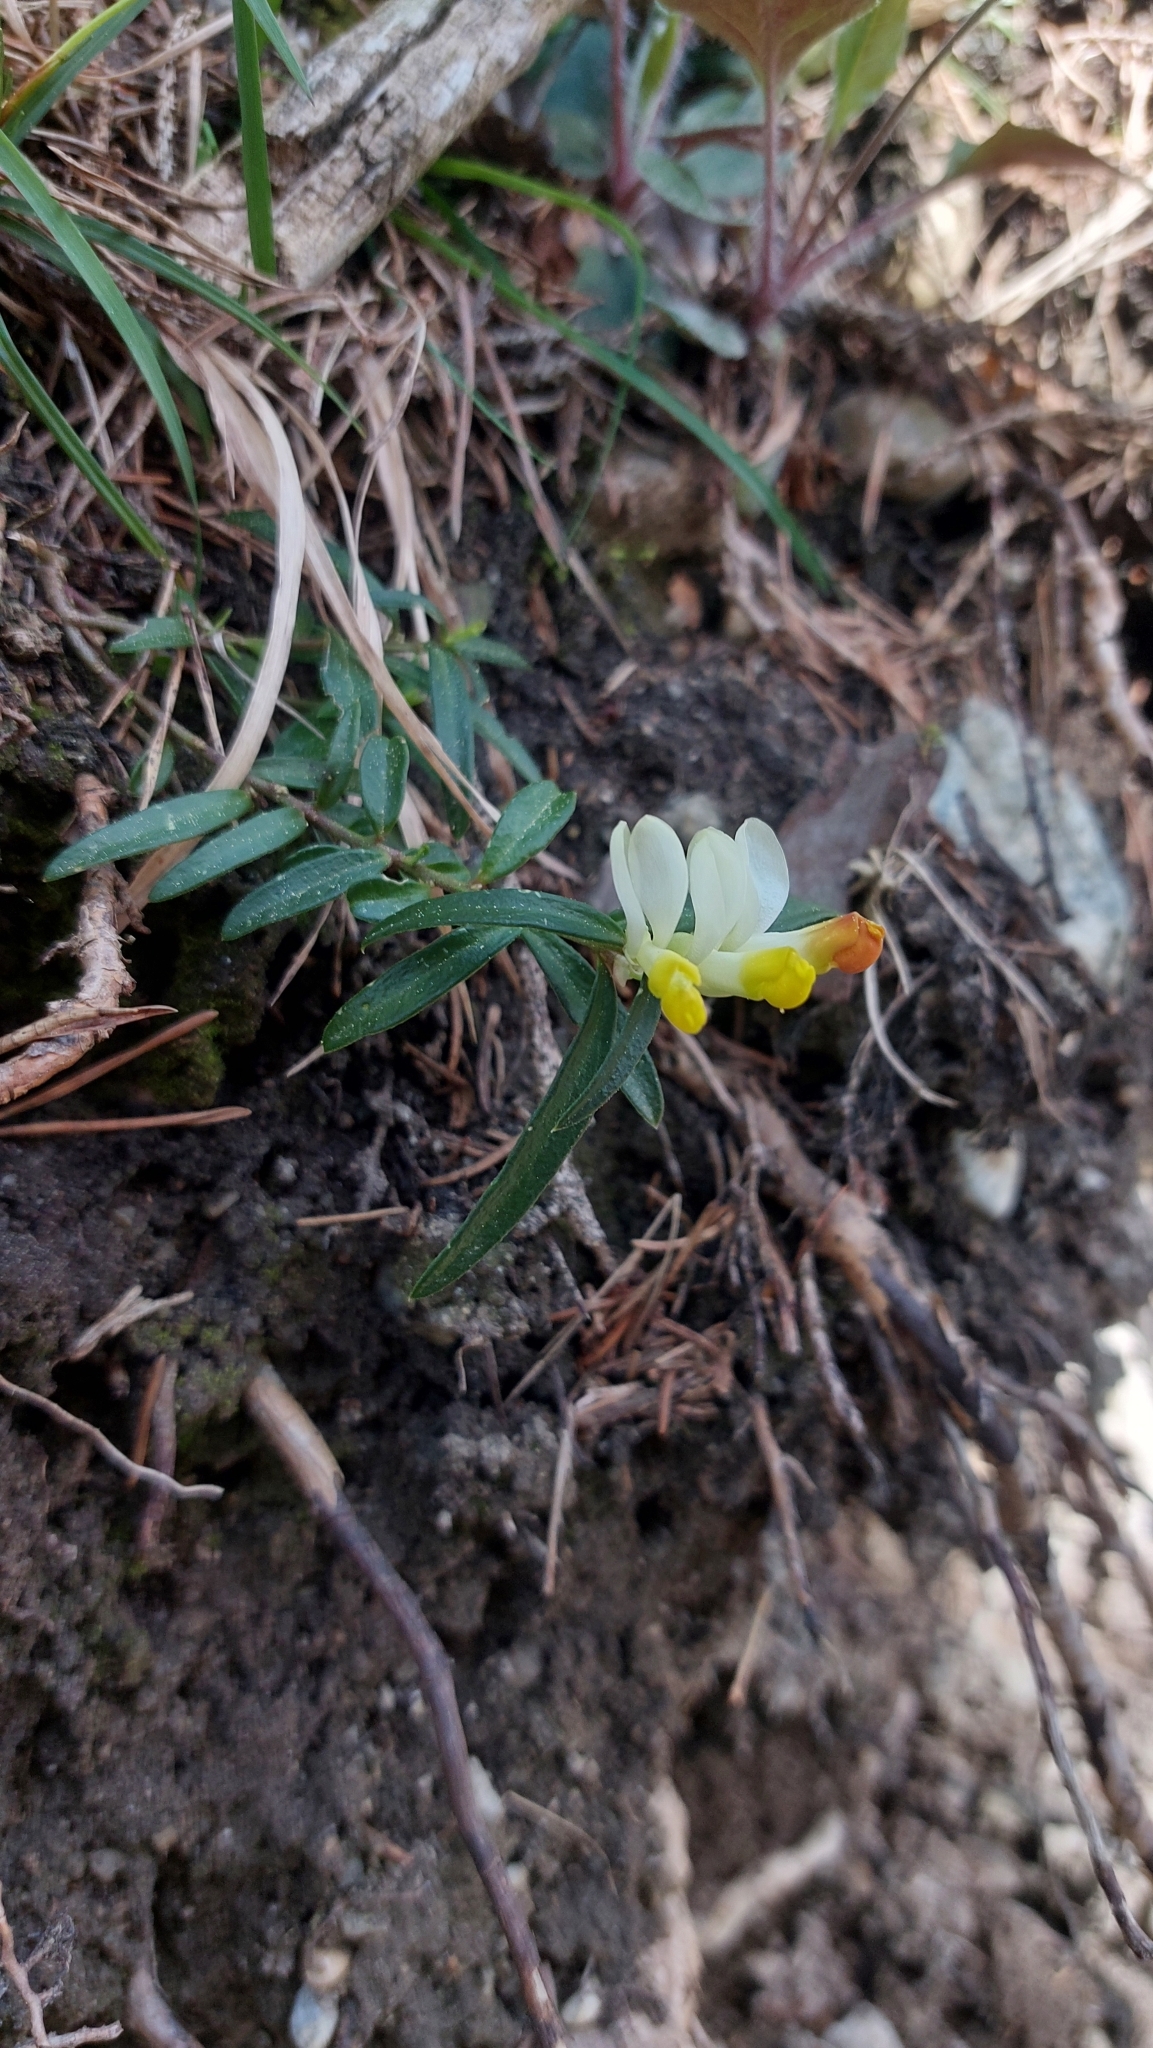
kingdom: Plantae
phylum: Tracheophyta
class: Magnoliopsida
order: Fabales
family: Polygalaceae
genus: Polygaloides
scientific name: Polygaloides chamaebuxus
